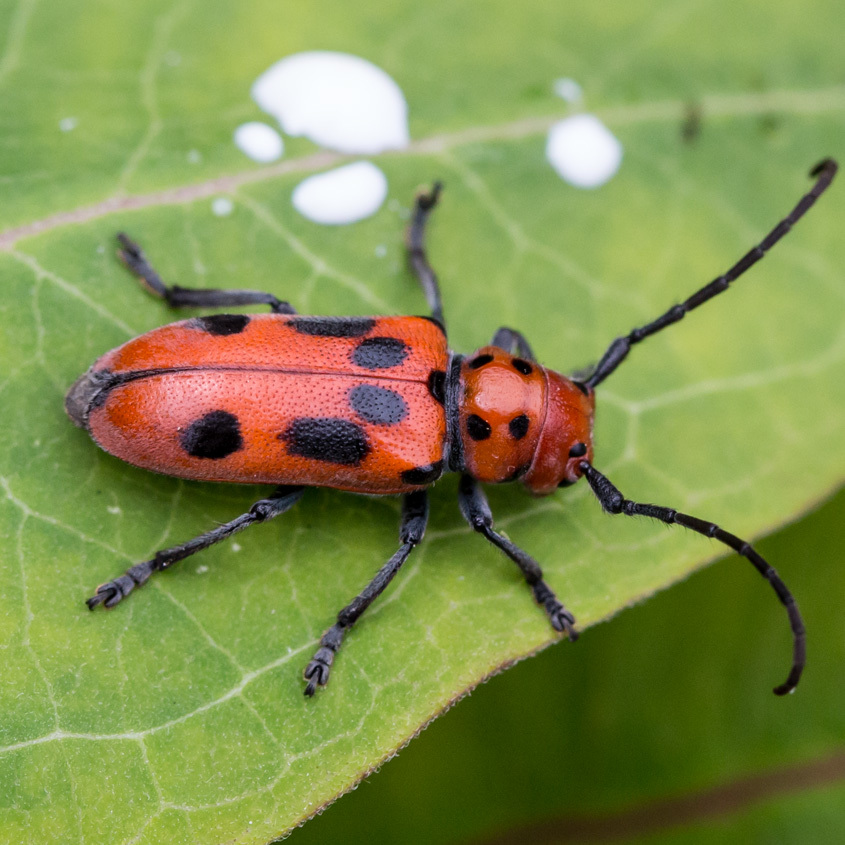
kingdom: Animalia
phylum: Arthropoda
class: Insecta
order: Coleoptera
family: Cerambycidae
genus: Tetraopes
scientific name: Tetraopes tetrophthalmus
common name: Red milkweed beetle
